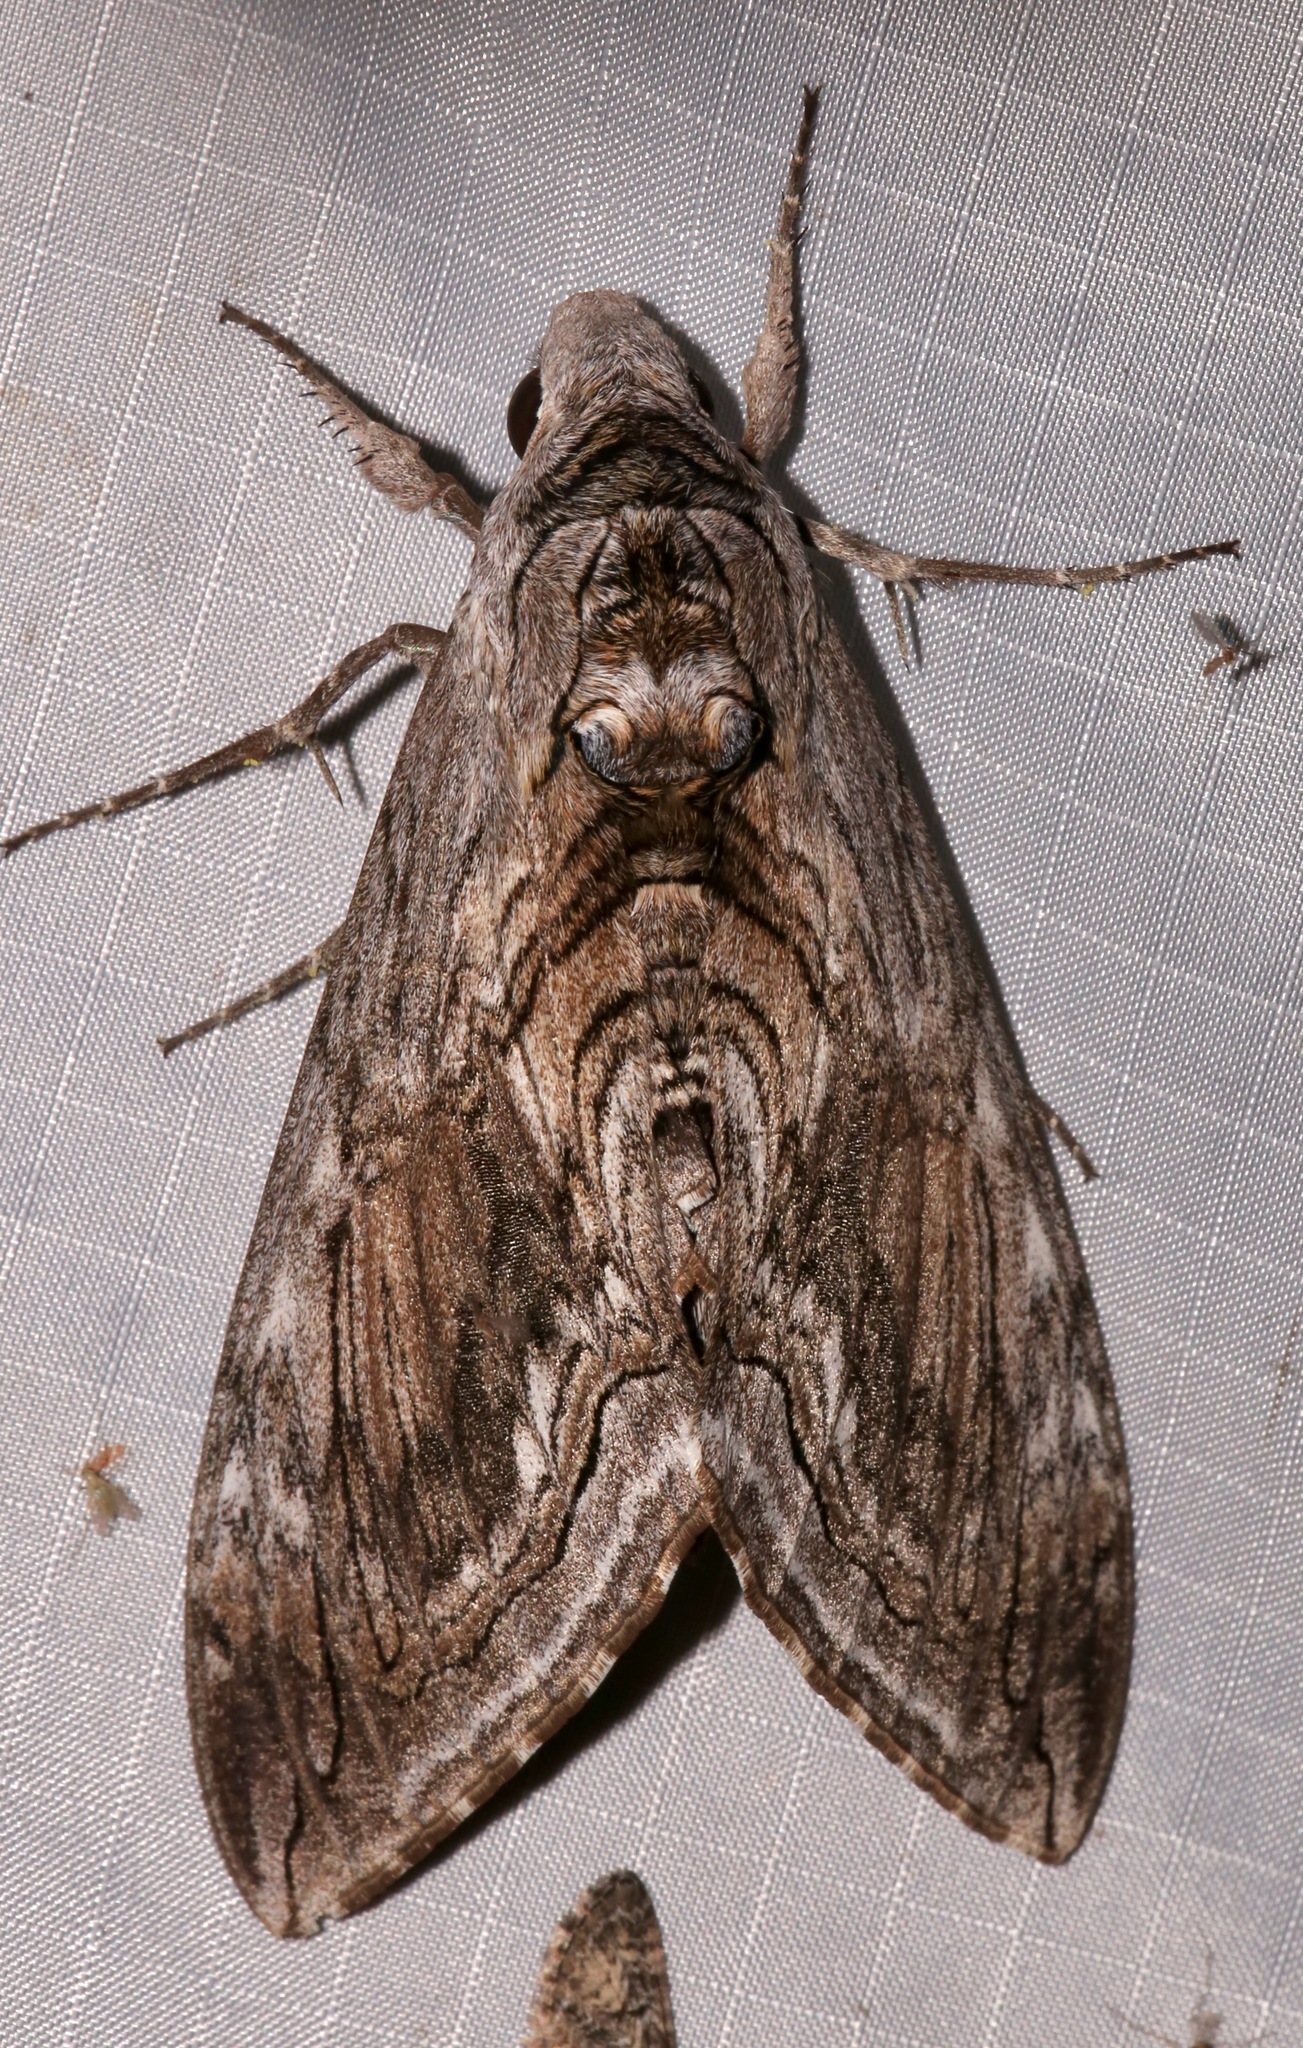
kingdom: Animalia
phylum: Arthropoda
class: Insecta
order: Lepidoptera
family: Sphingidae
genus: Manduca
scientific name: Manduca quinquemaculatus
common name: Five-spotted hawk-moth
